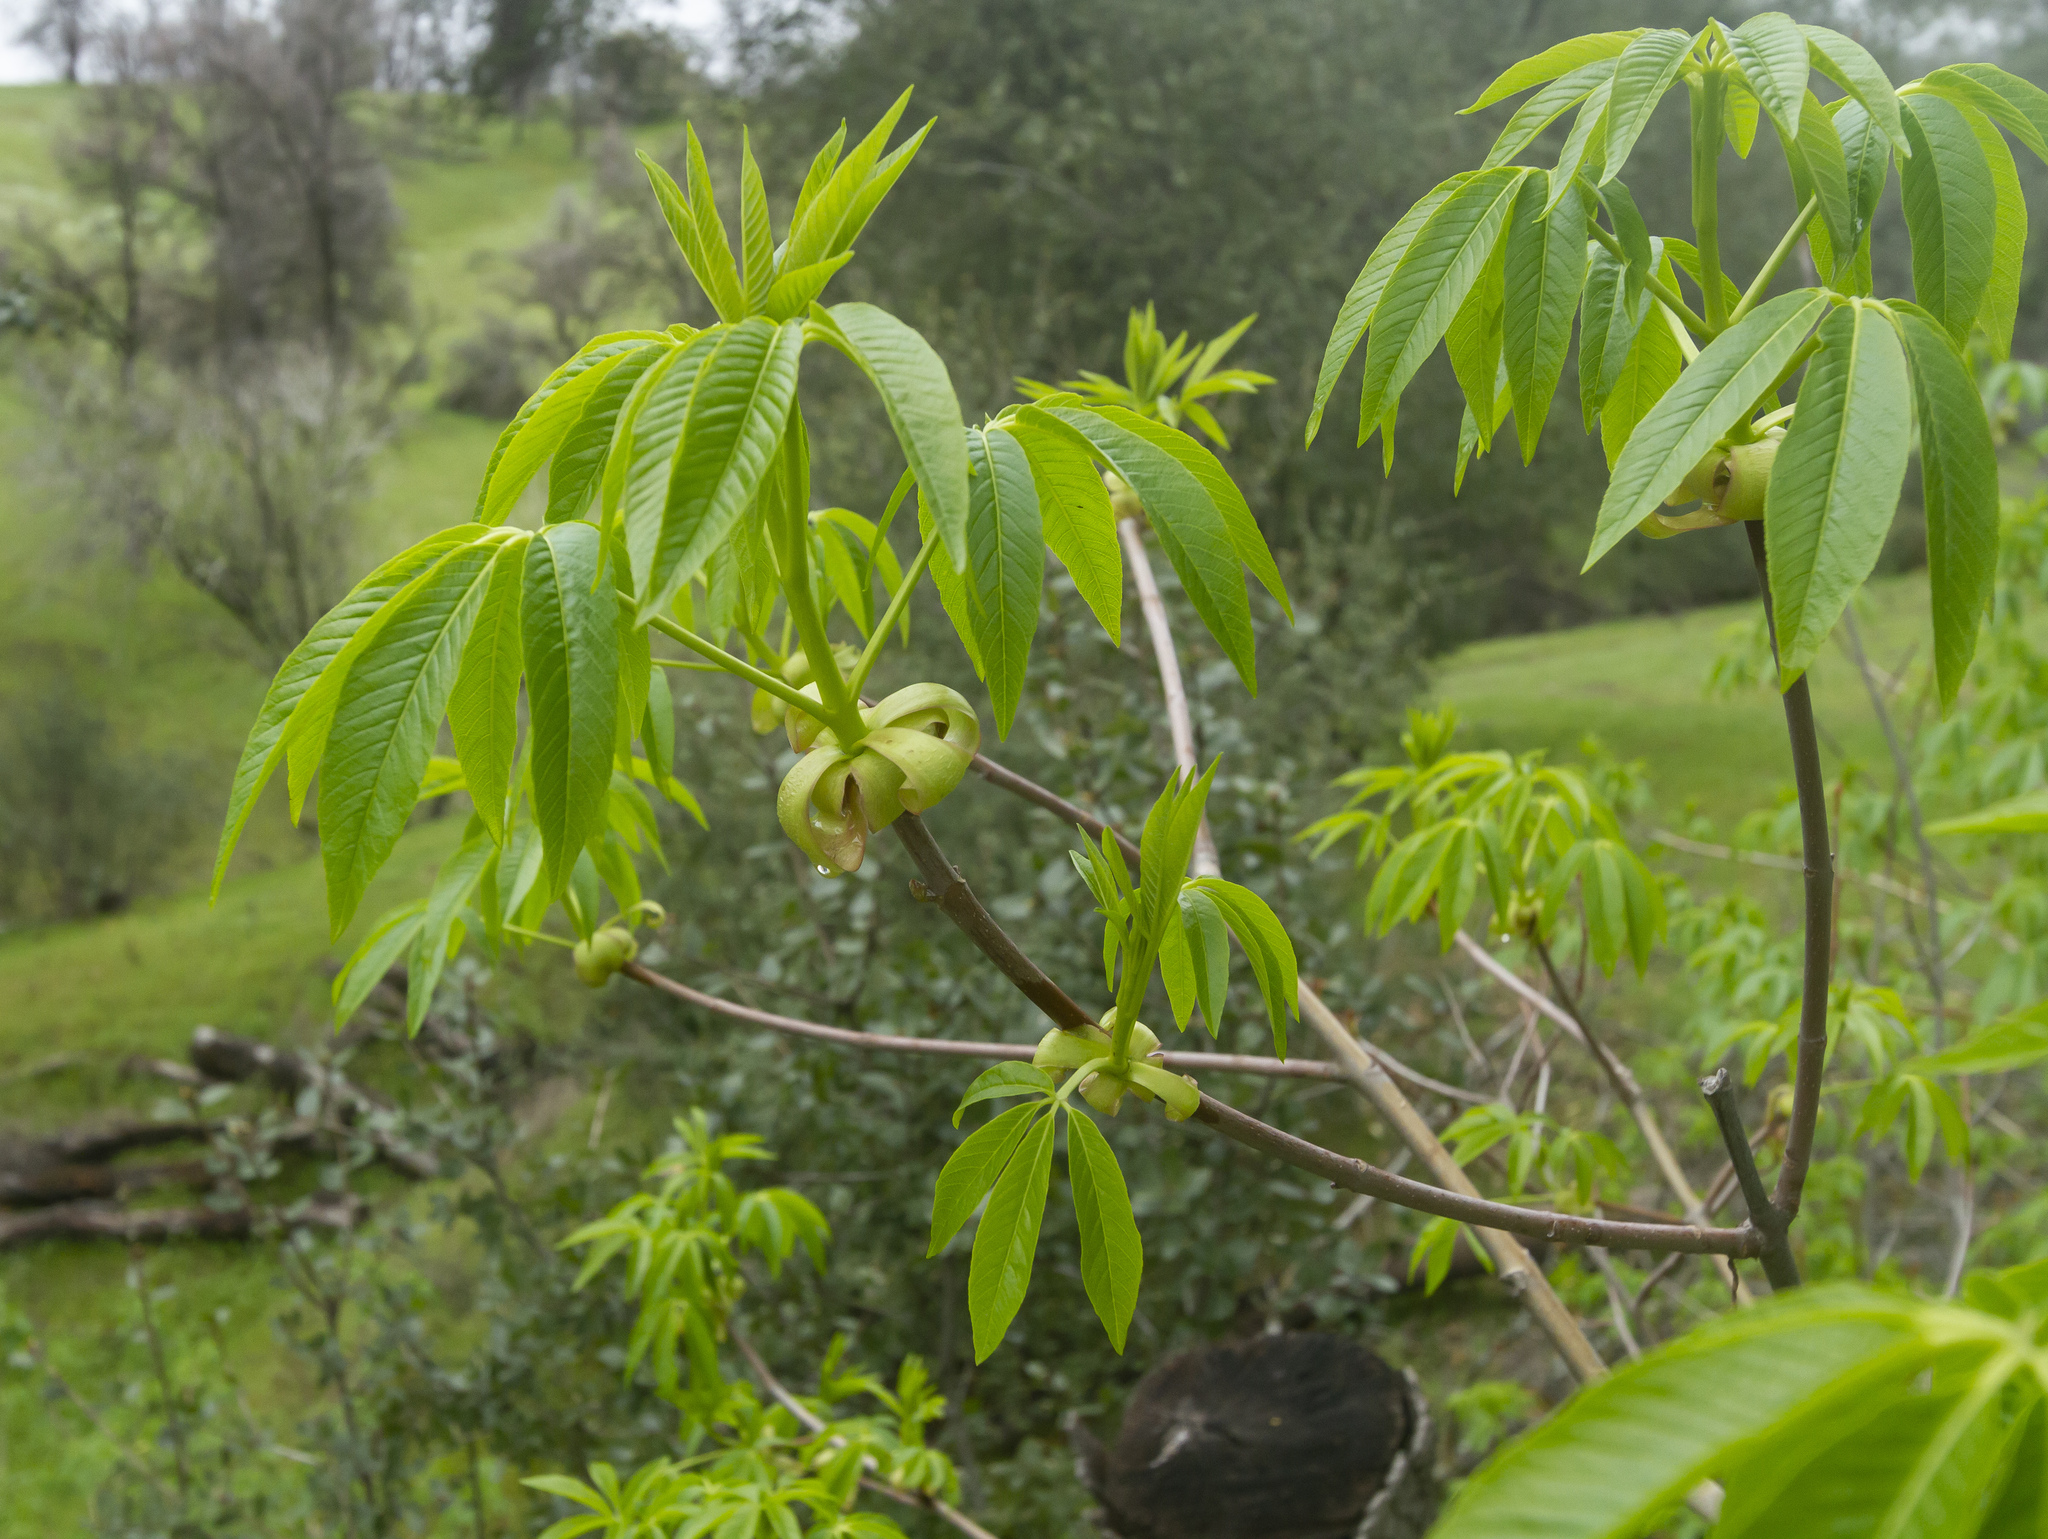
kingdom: Plantae
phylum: Tracheophyta
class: Magnoliopsida
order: Sapindales
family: Sapindaceae
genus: Aesculus
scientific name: Aesculus californica
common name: California buckeye
